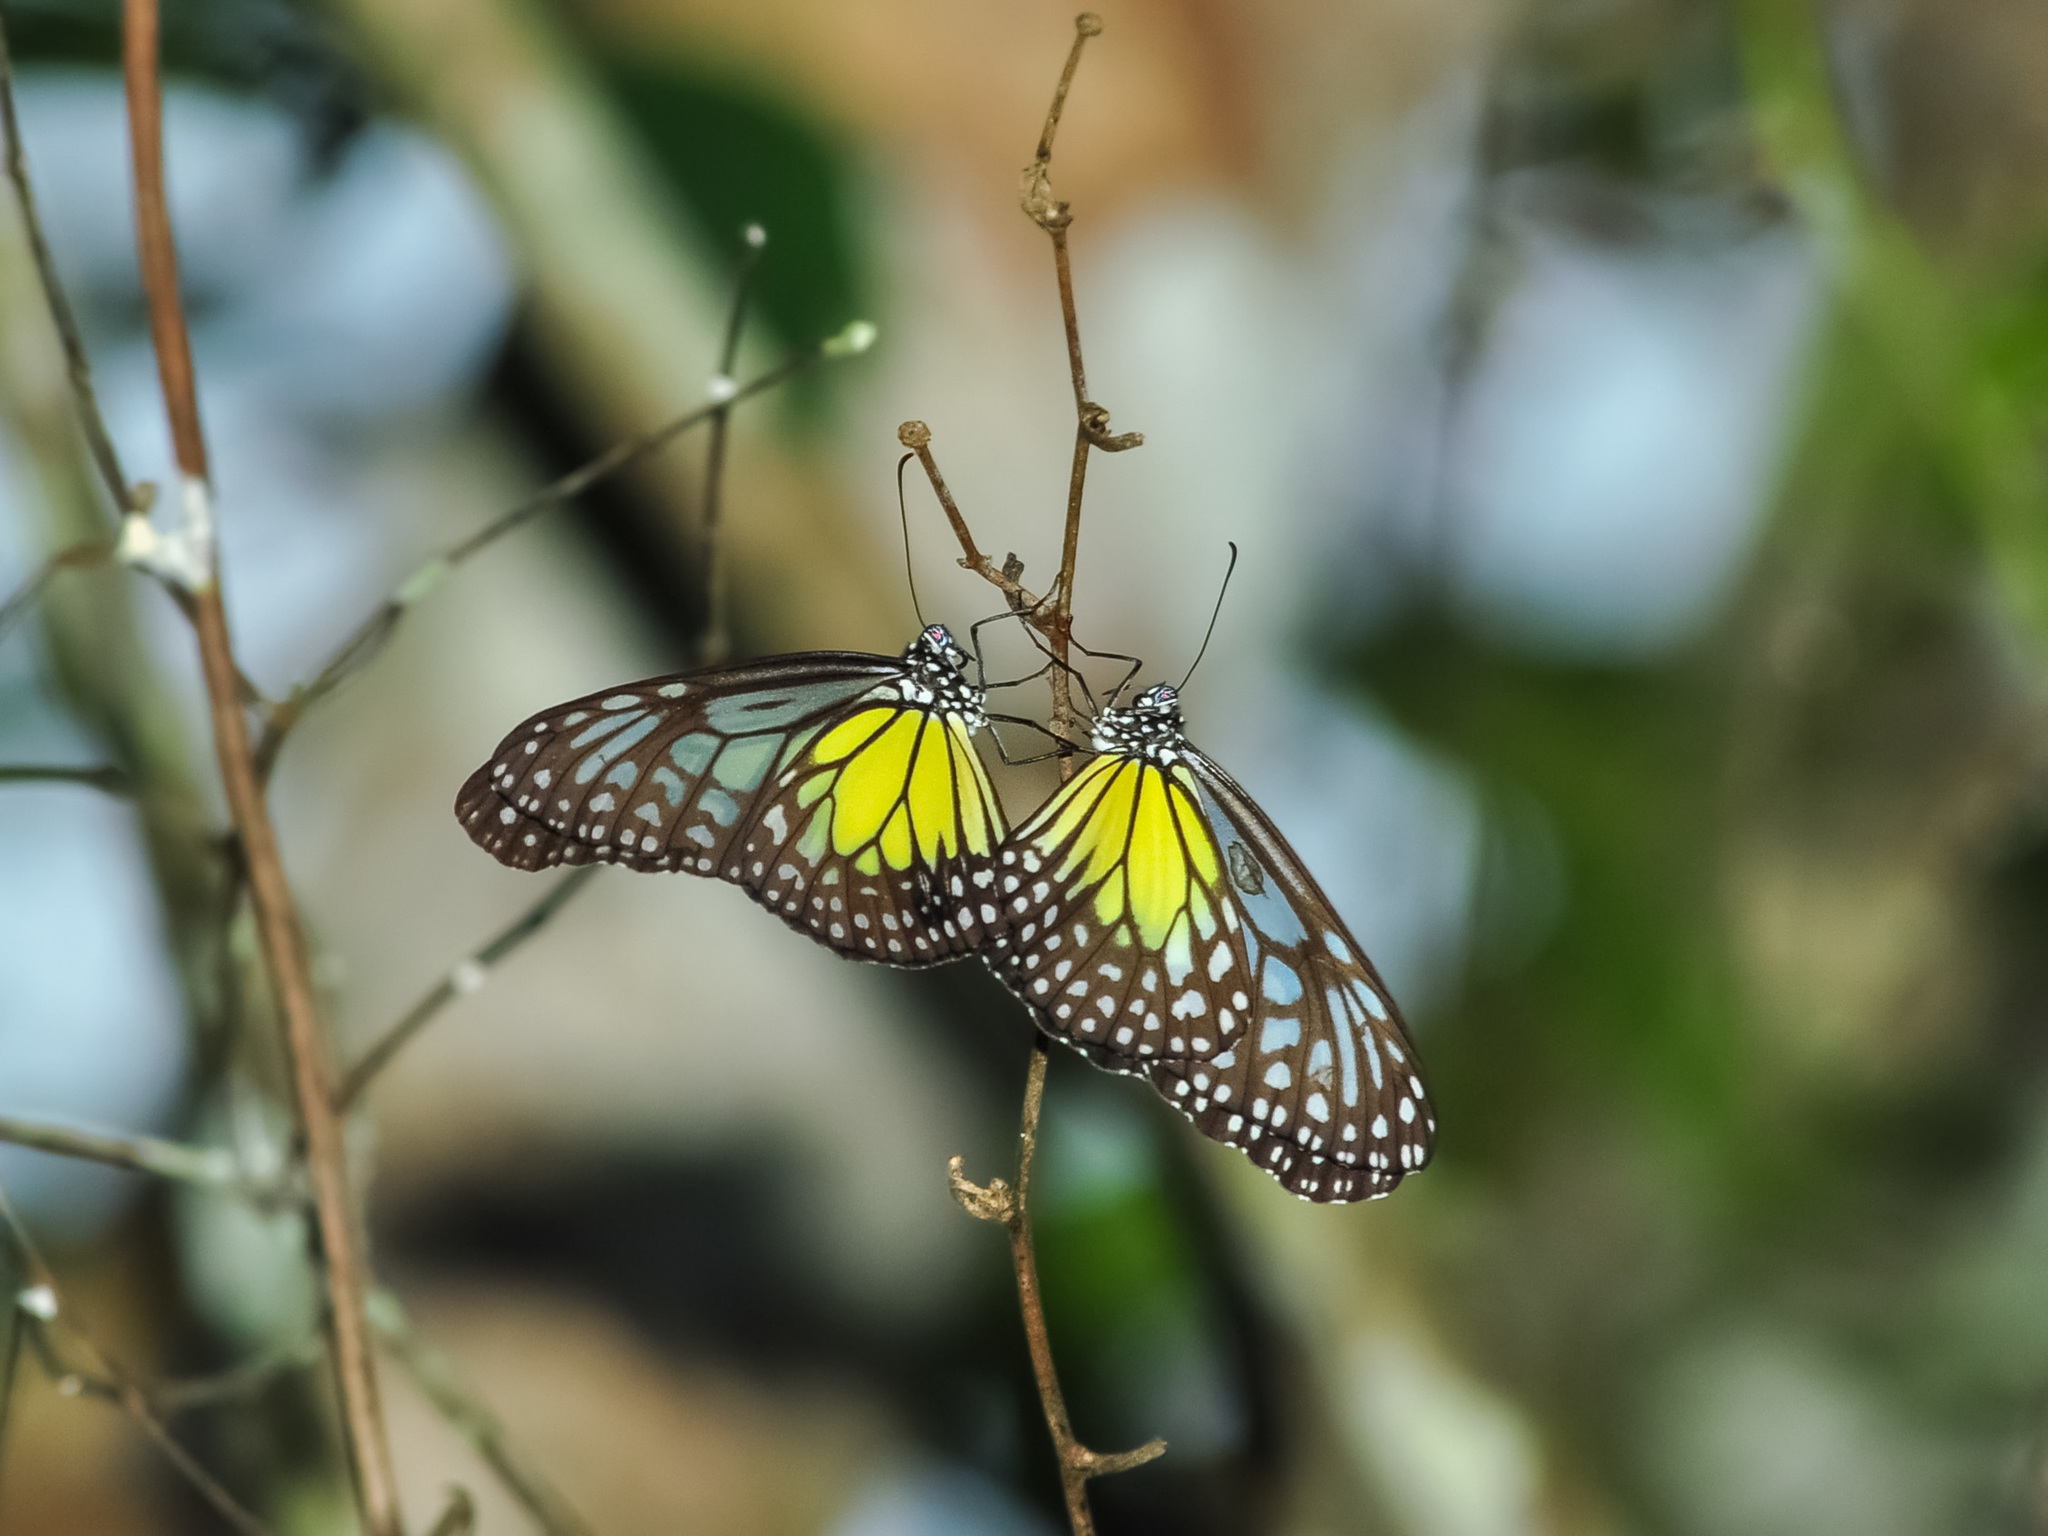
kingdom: Animalia
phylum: Arthropoda
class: Insecta
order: Lepidoptera
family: Nymphalidae
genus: Parantica
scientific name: Parantica aspasia
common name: Yellow glassy tiger
